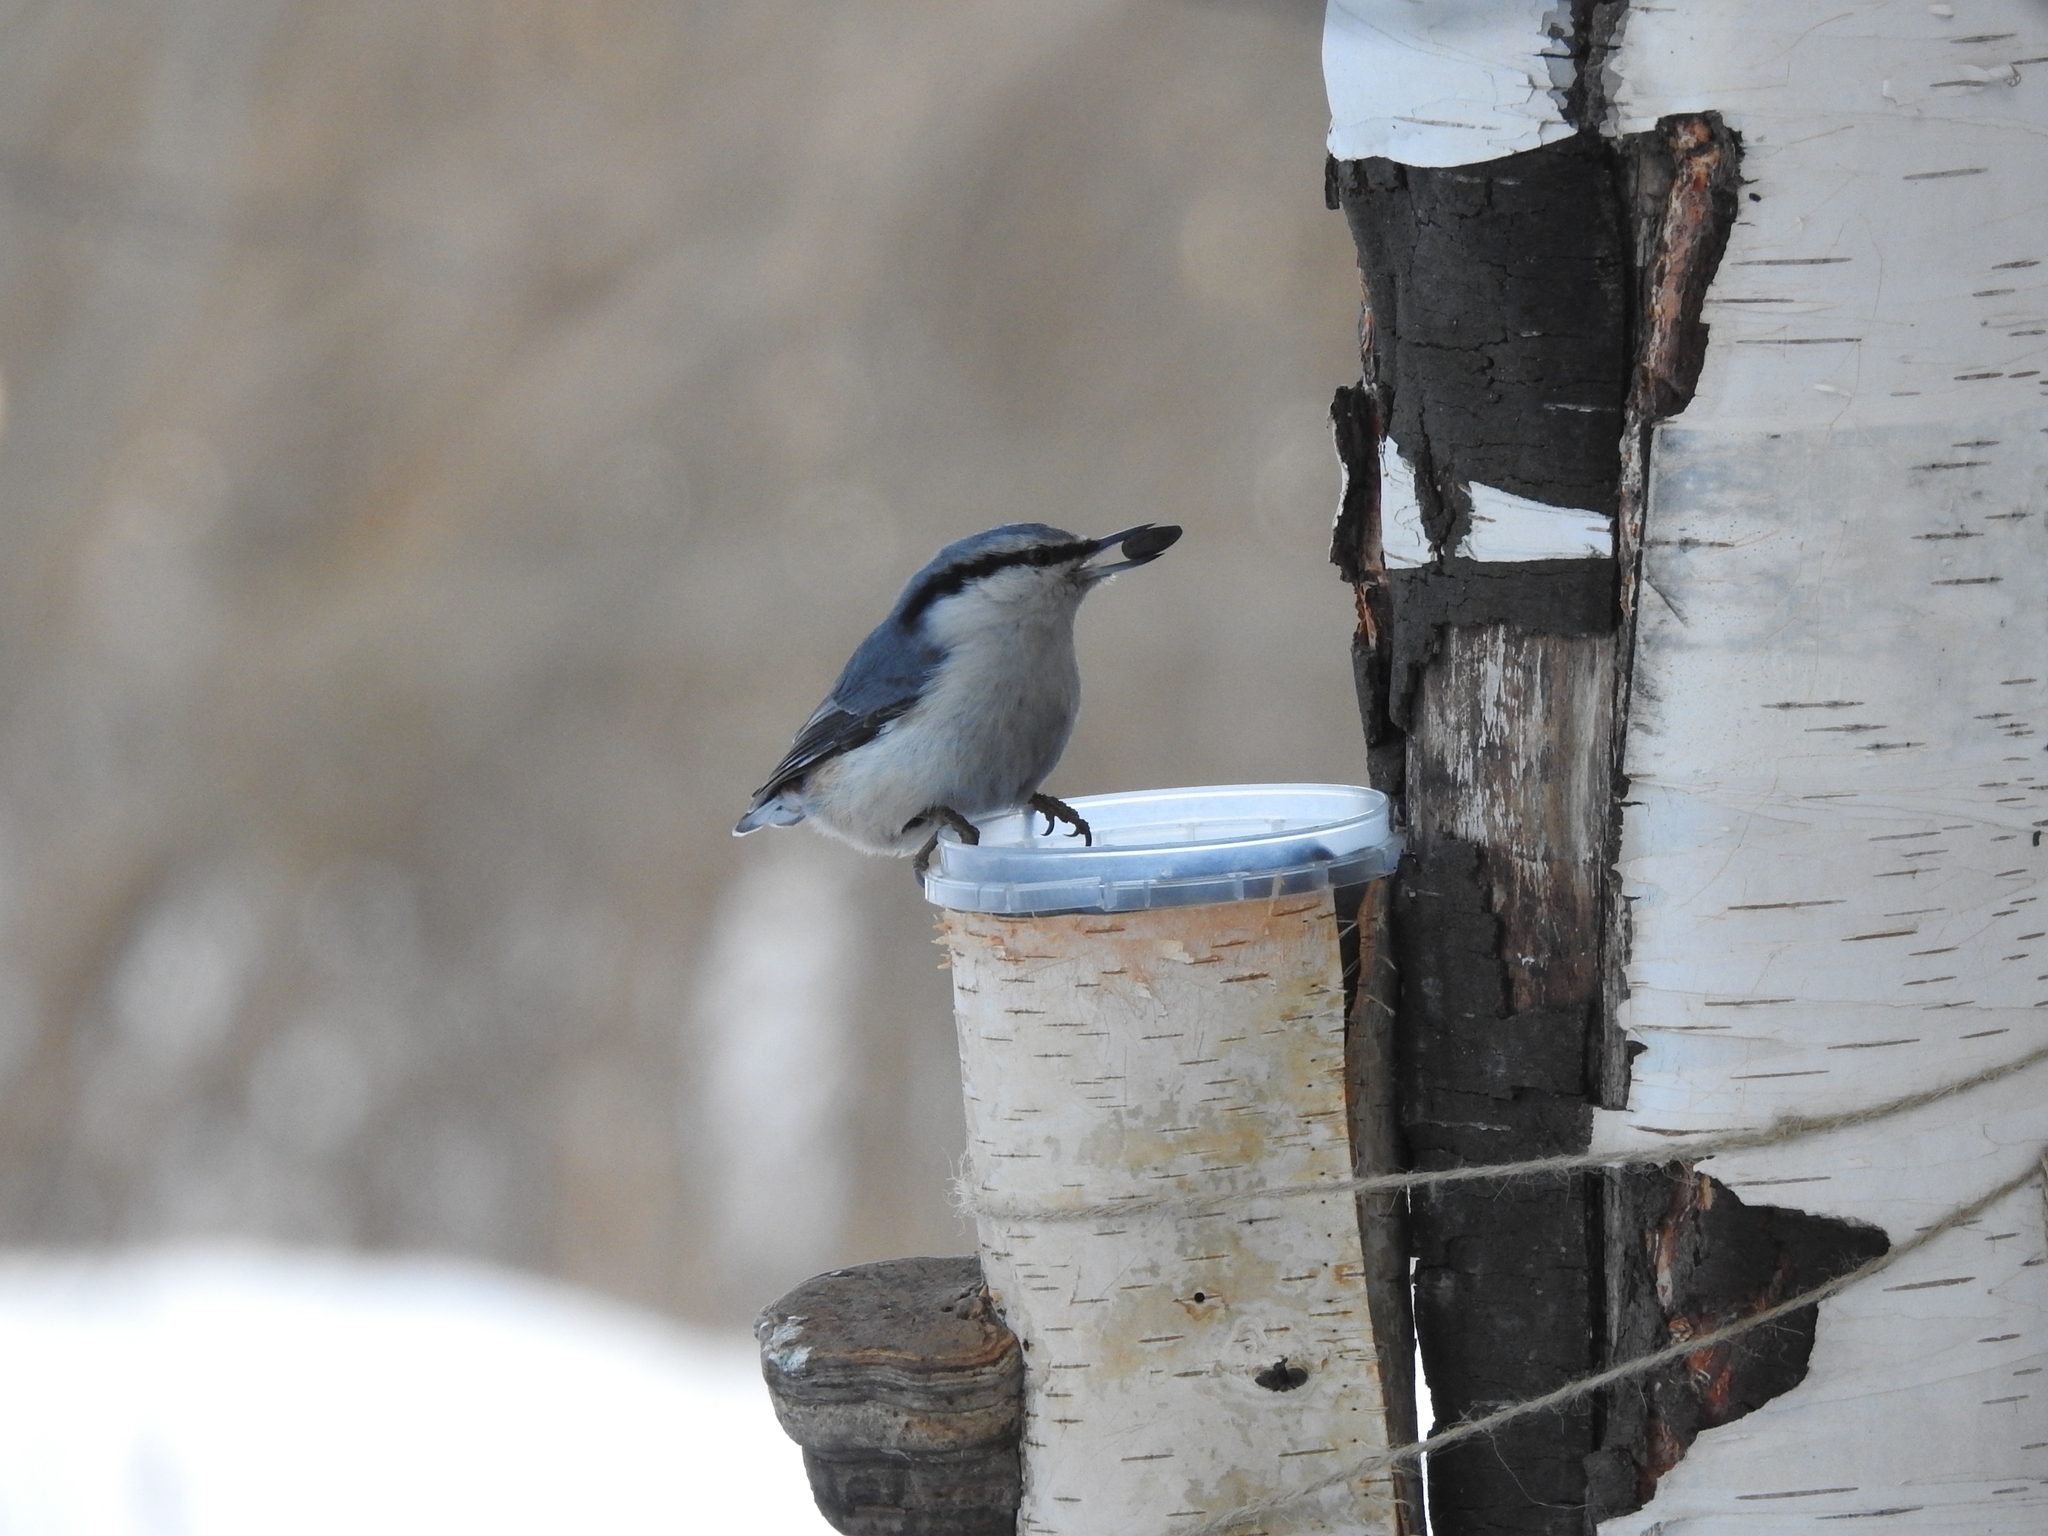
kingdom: Animalia
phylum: Chordata
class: Aves
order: Passeriformes
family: Sittidae
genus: Sitta
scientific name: Sitta europaea
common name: Eurasian nuthatch
